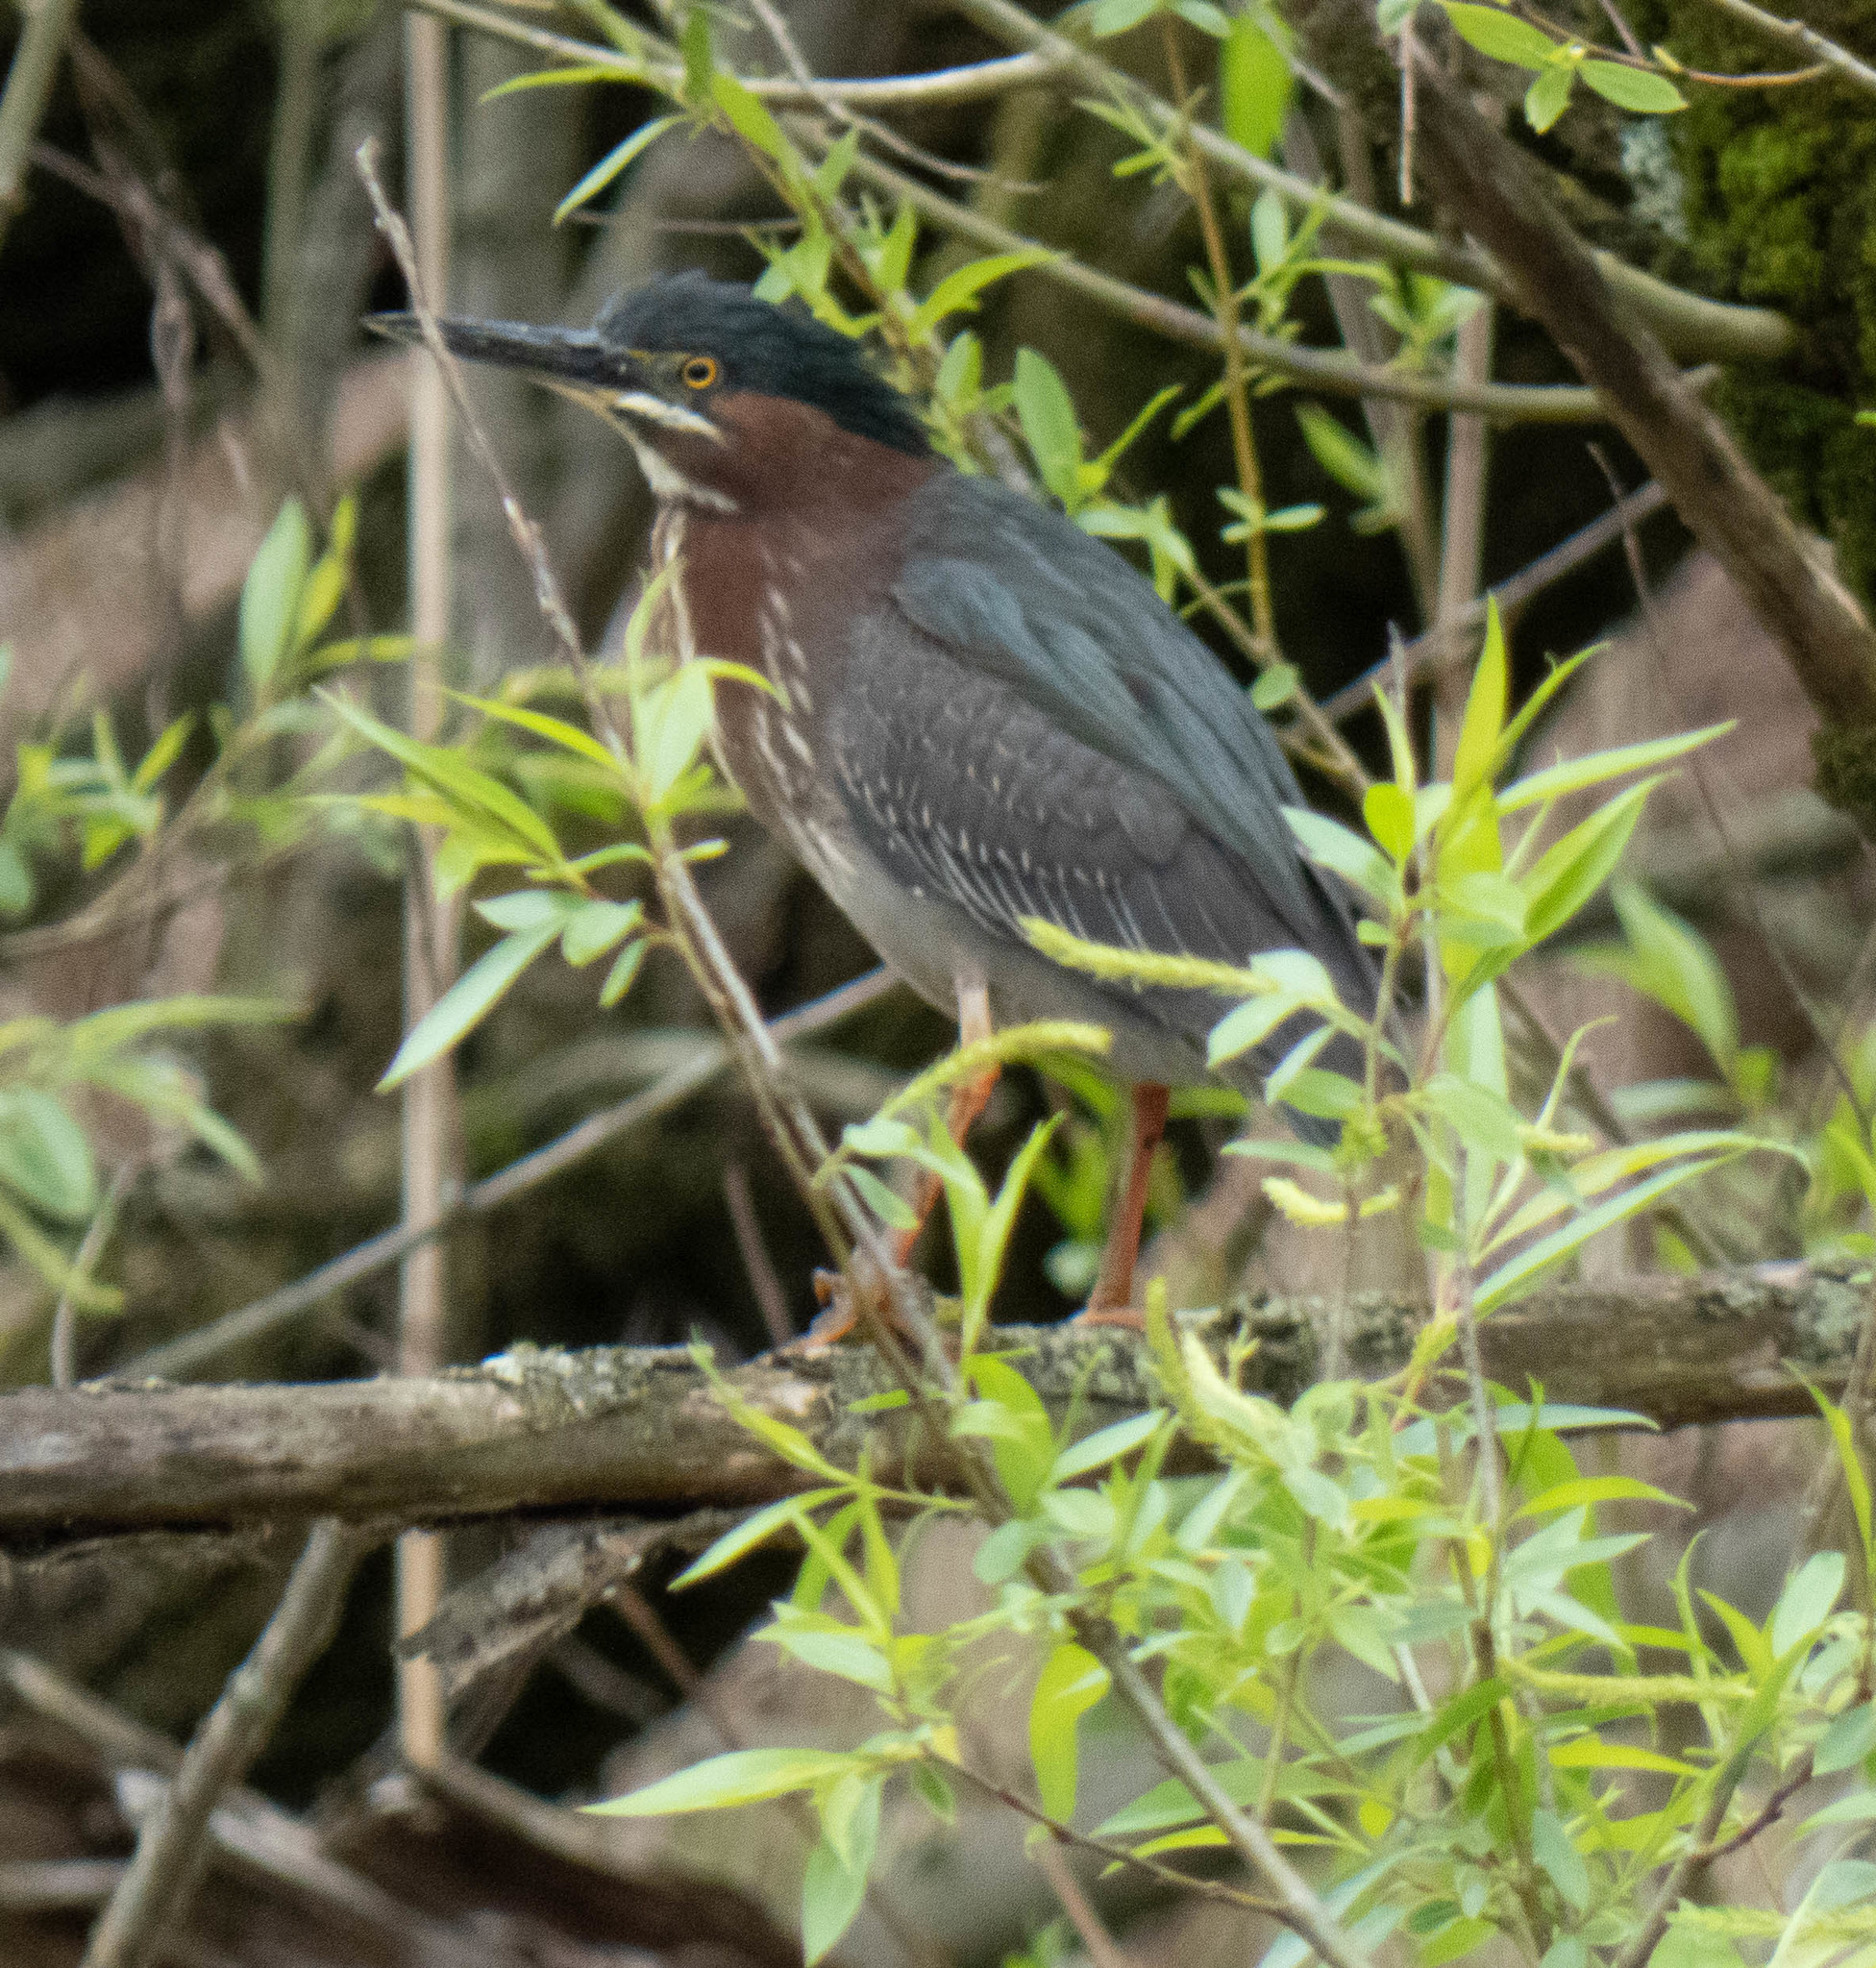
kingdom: Animalia
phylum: Chordata
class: Aves
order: Pelecaniformes
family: Ardeidae
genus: Butorides
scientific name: Butorides virescens
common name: Green heron
